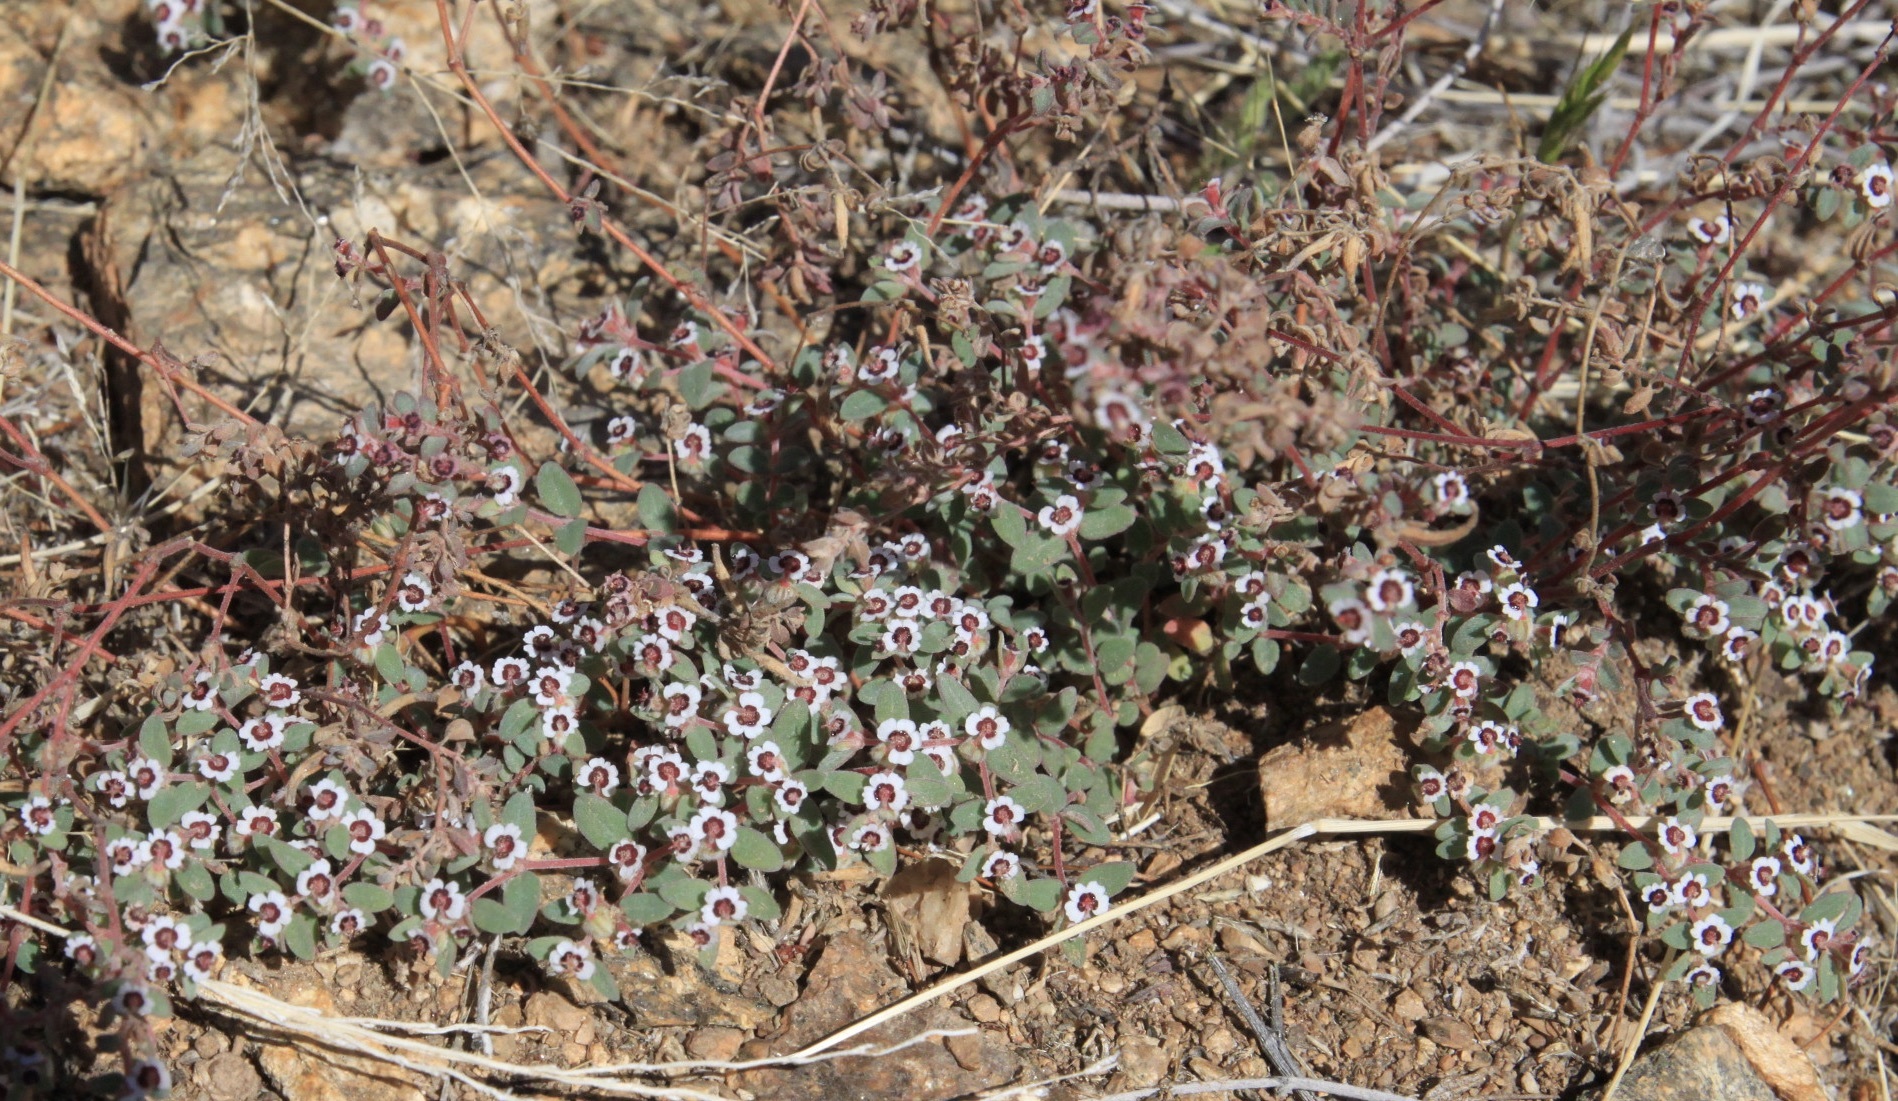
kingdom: Plantae
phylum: Tracheophyta
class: Magnoliopsida
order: Malpighiales
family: Euphorbiaceae
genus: Euphorbia
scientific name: Euphorbia melanadenia
